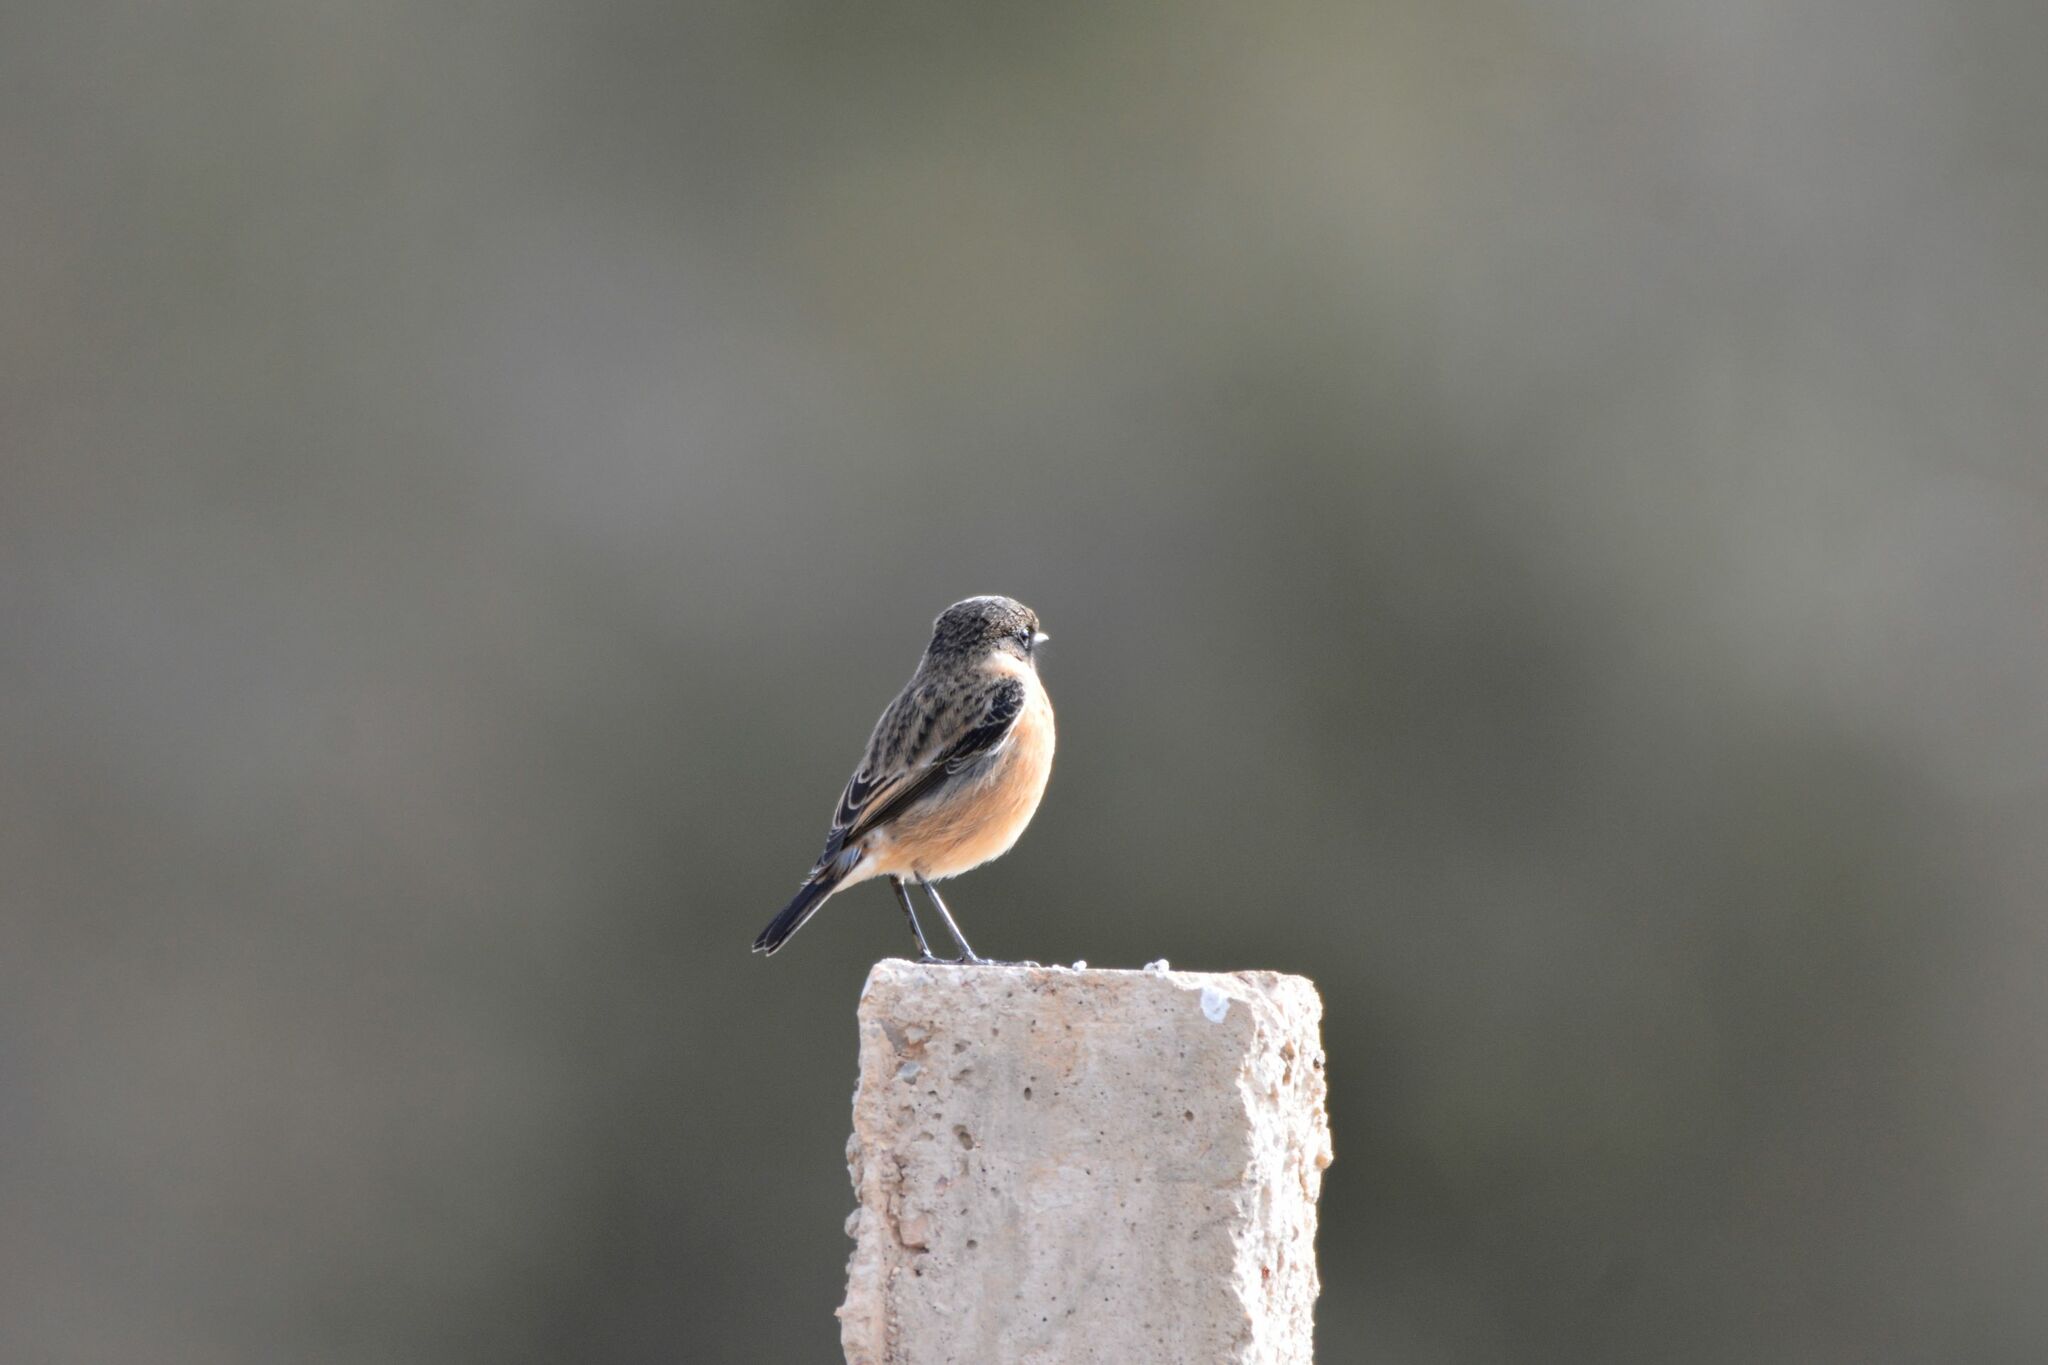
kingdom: Animalia
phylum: Chordata
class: Aves
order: Passeriformes
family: Muscicapidae
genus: Saxicola
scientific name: Saxicola rubicola
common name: European stonechat
